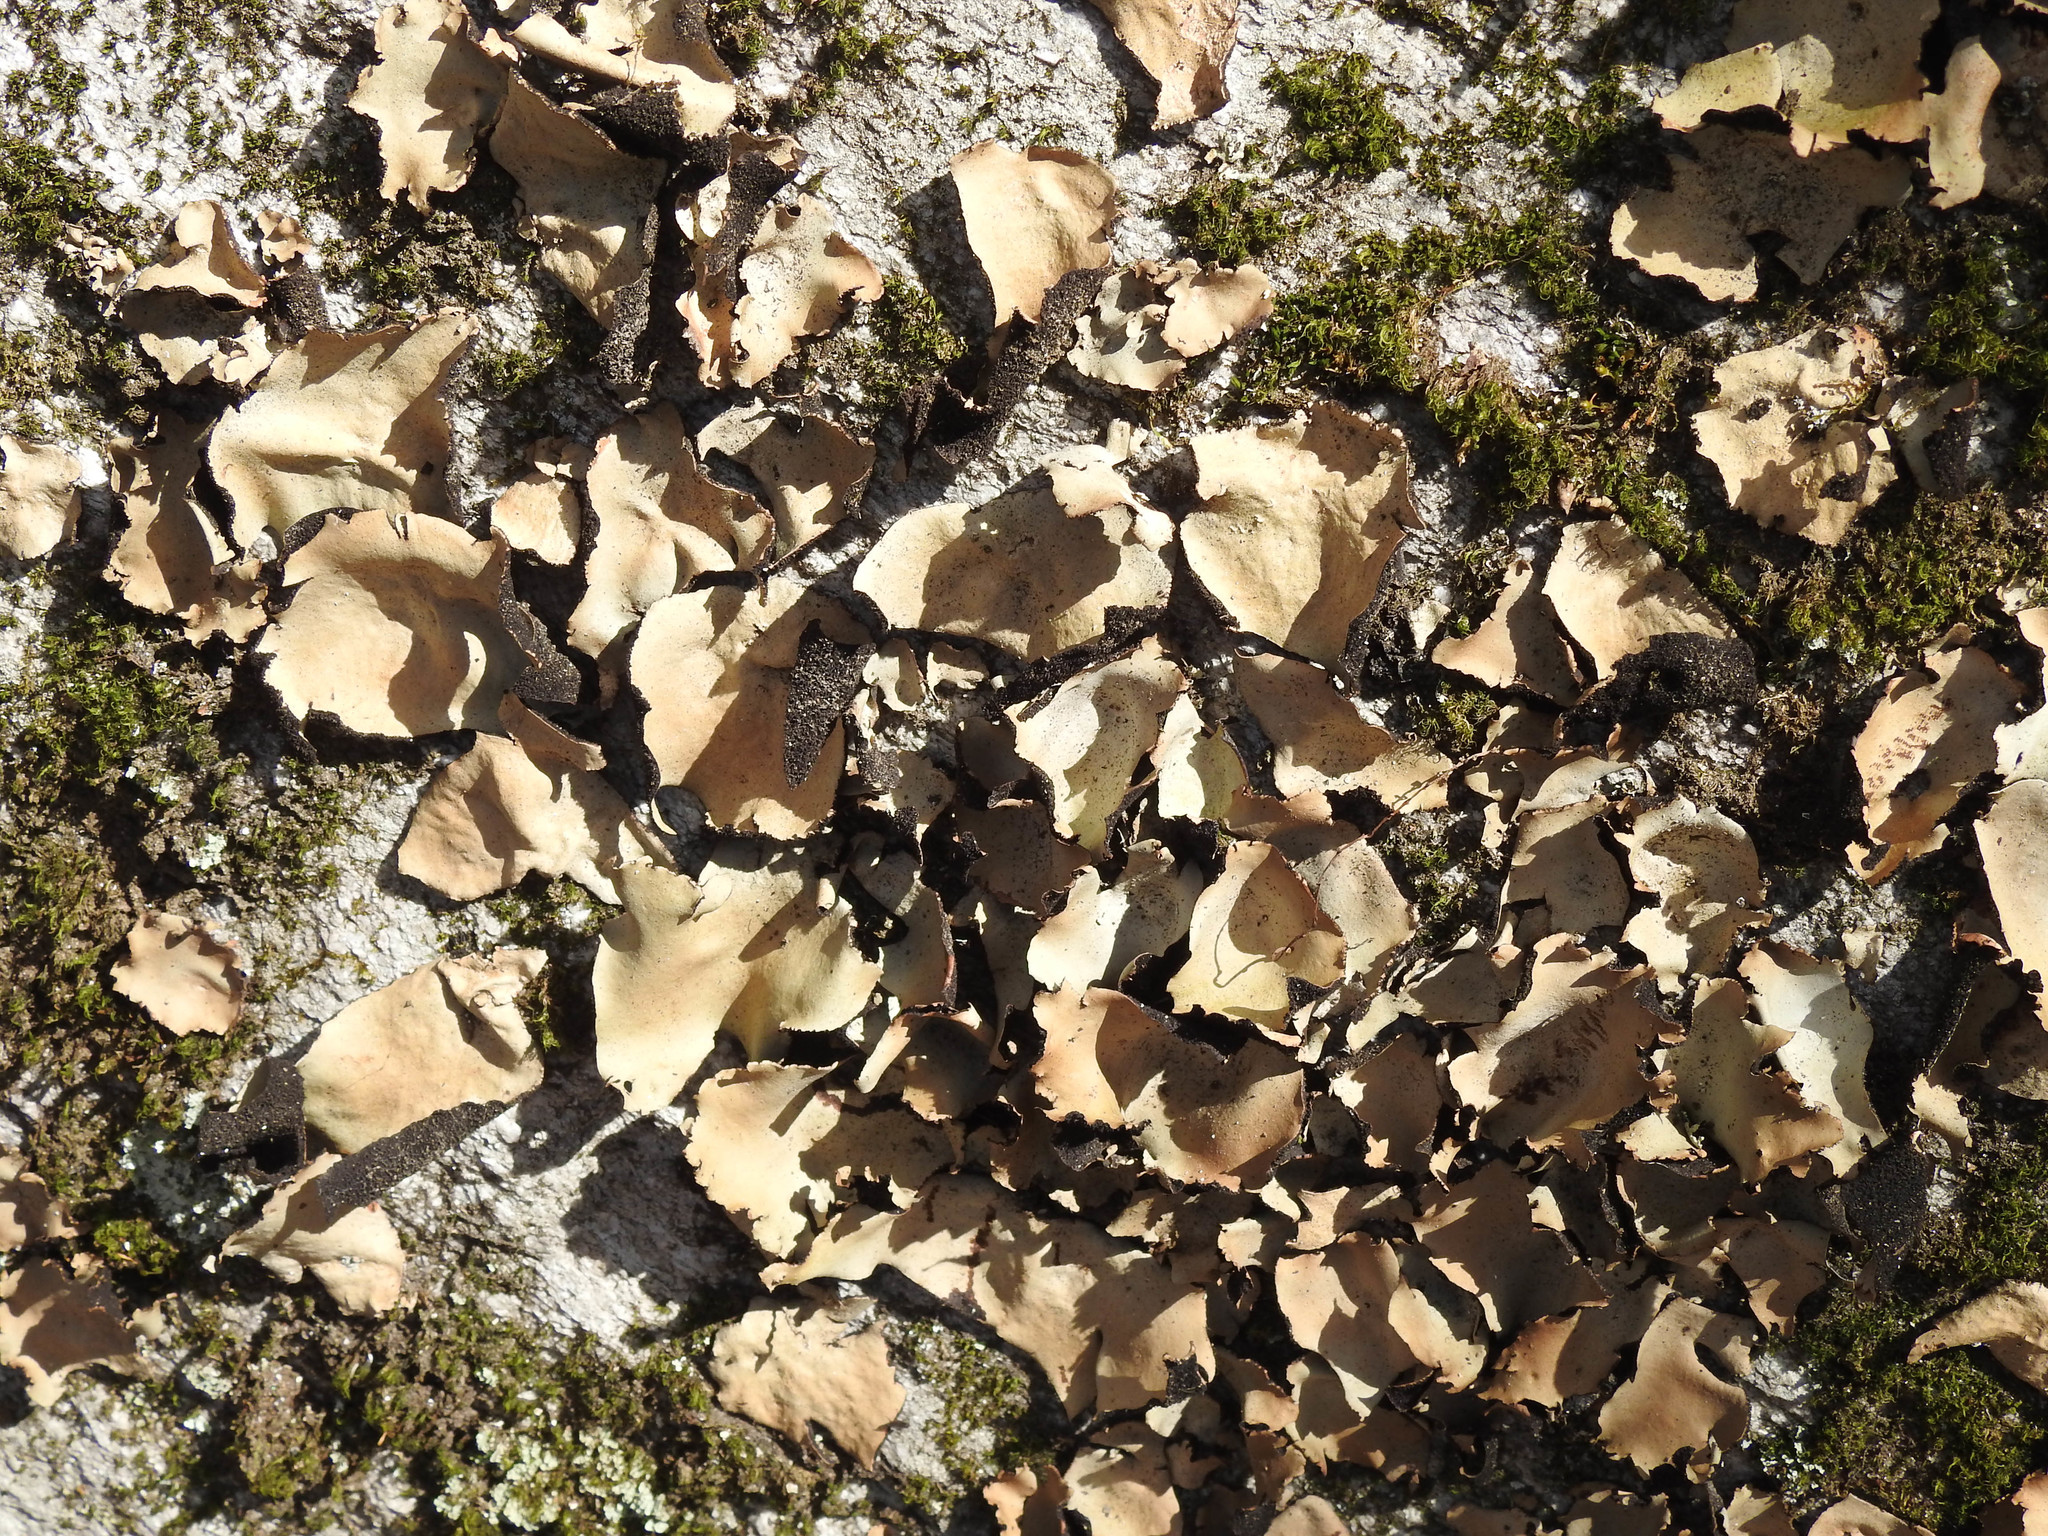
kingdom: Fungi
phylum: Ascomycota
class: Lecanoromycetes
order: Umbilicariales
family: Umbilicariaceae
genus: Umbilicaria
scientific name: Umbilicaria mammulata
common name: Smooth rock tripe
